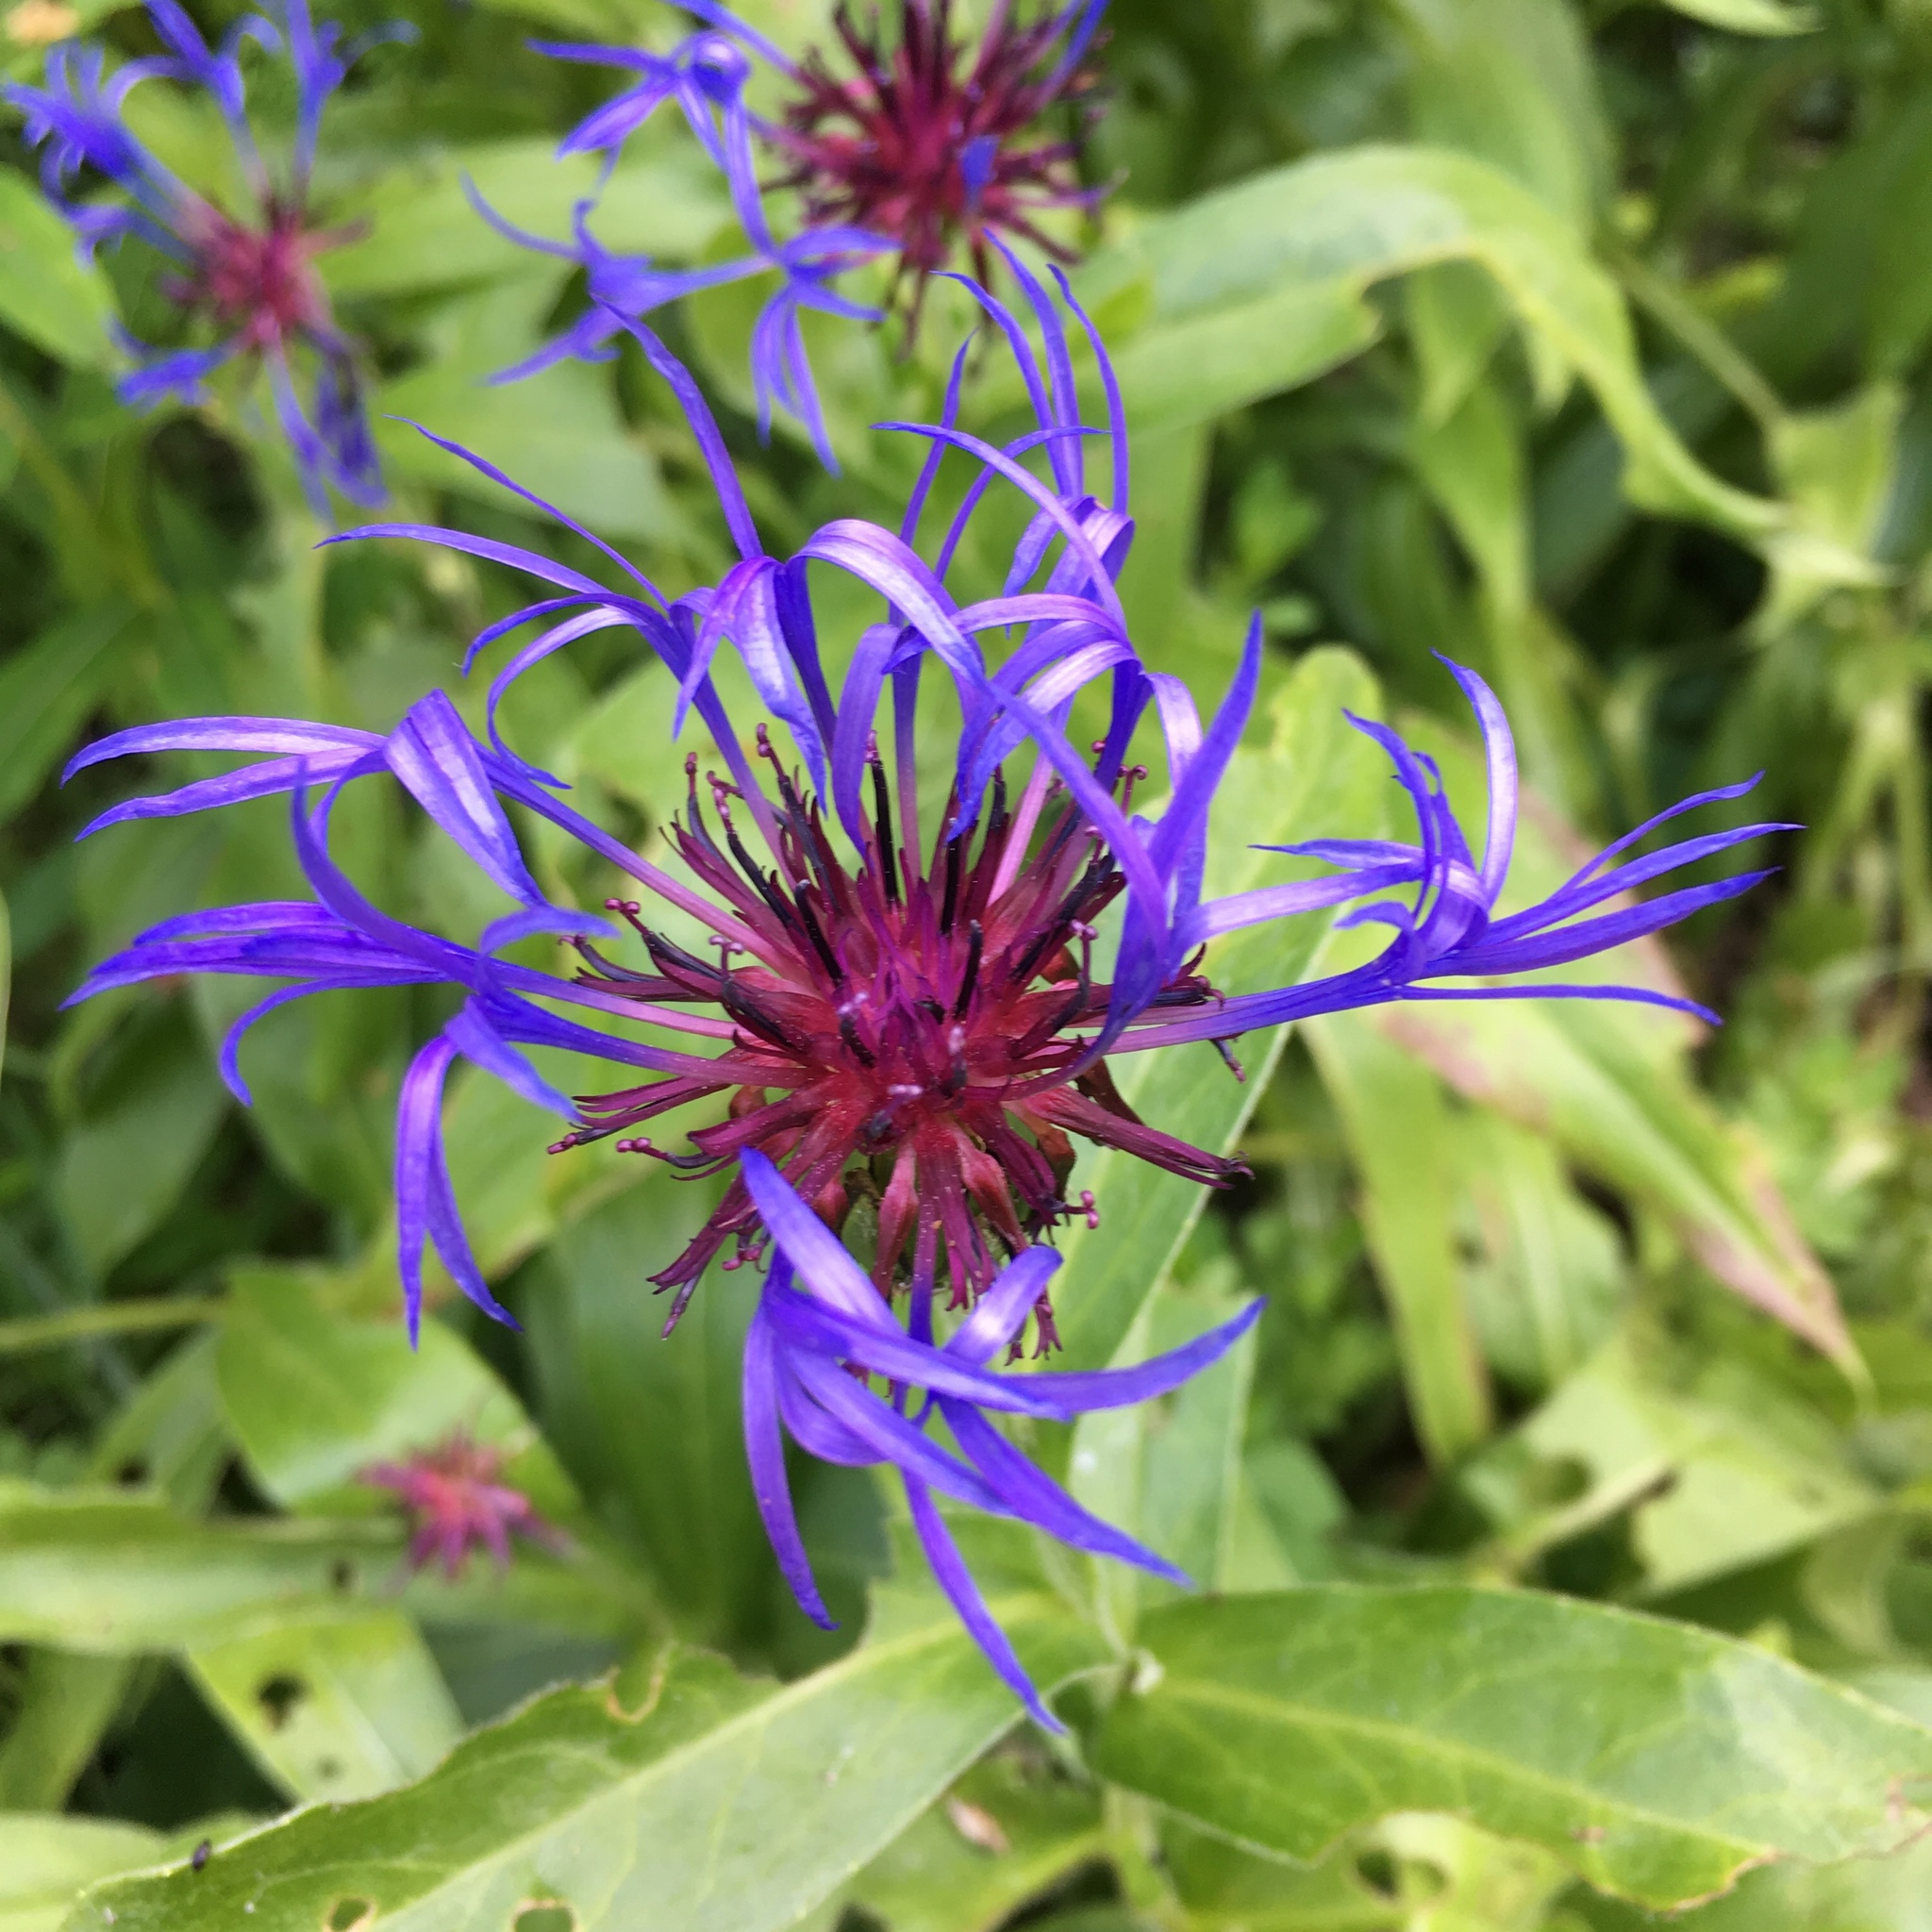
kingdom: Plantae
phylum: Tracheophyta
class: Magnoliopsida
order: Asterales
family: Asteraceae
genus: Centaurea
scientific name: Centaurea montana
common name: Perennial cornflower
